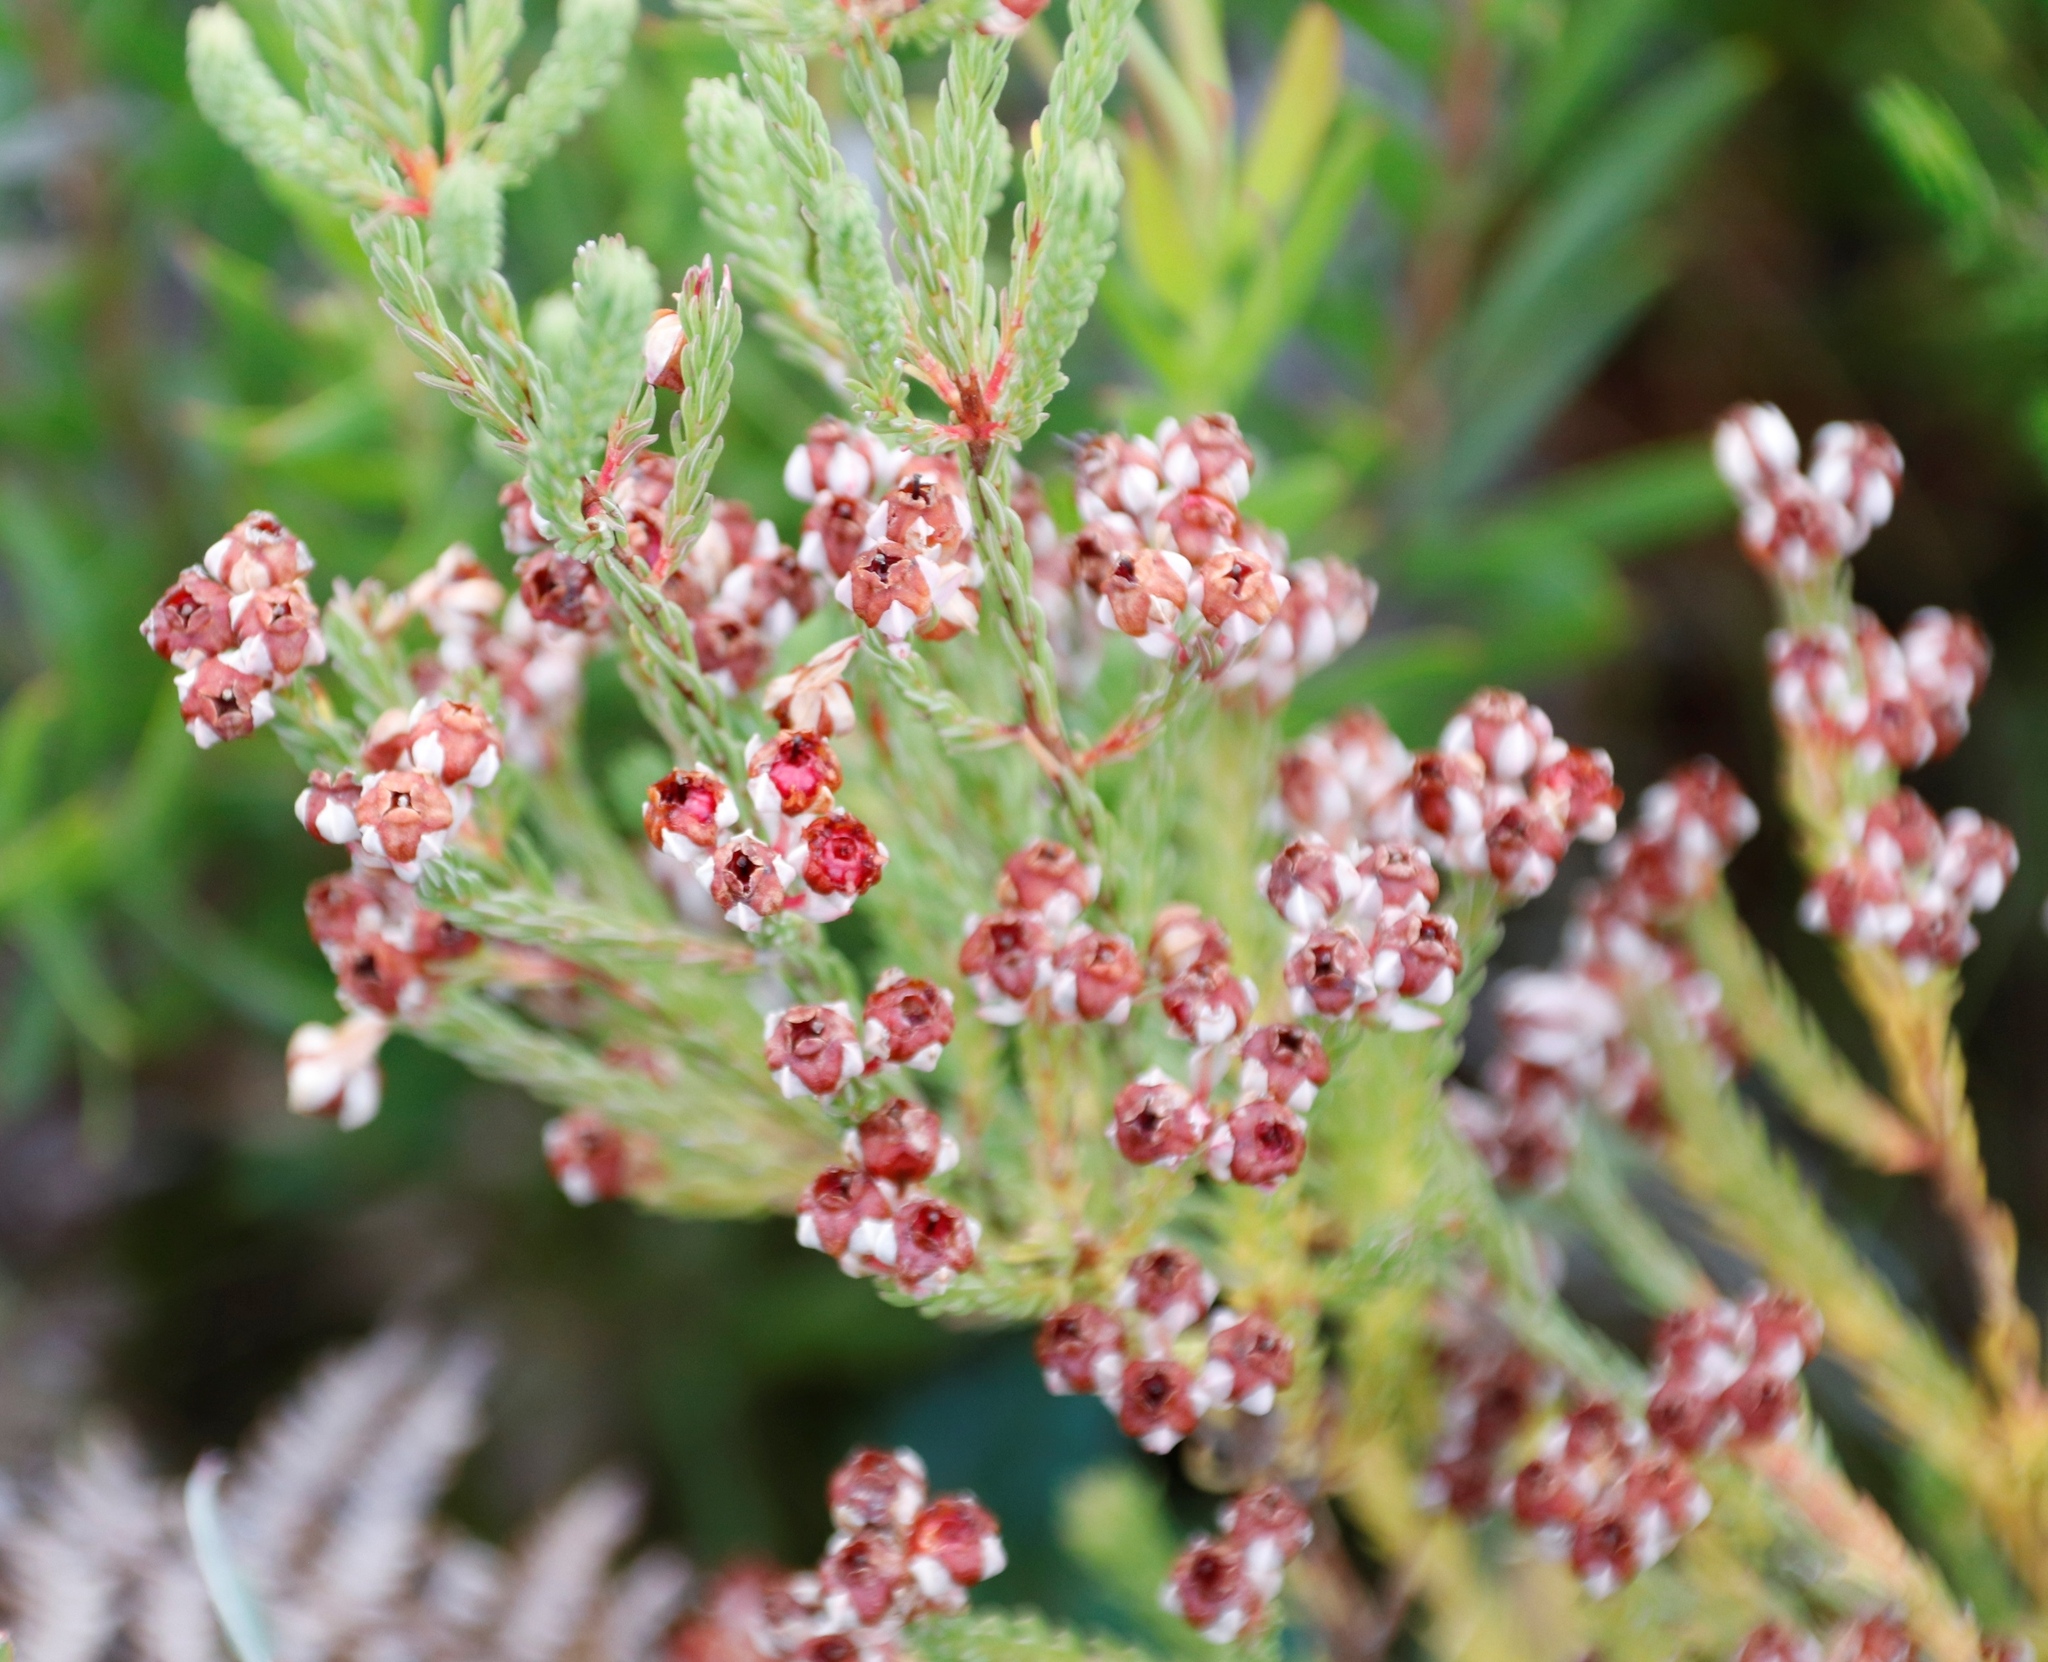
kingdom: Plantae
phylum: Tracheophyta
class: Magnoliopsida
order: Ericales
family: Ericaceae
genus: Erica
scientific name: Erica baccans
